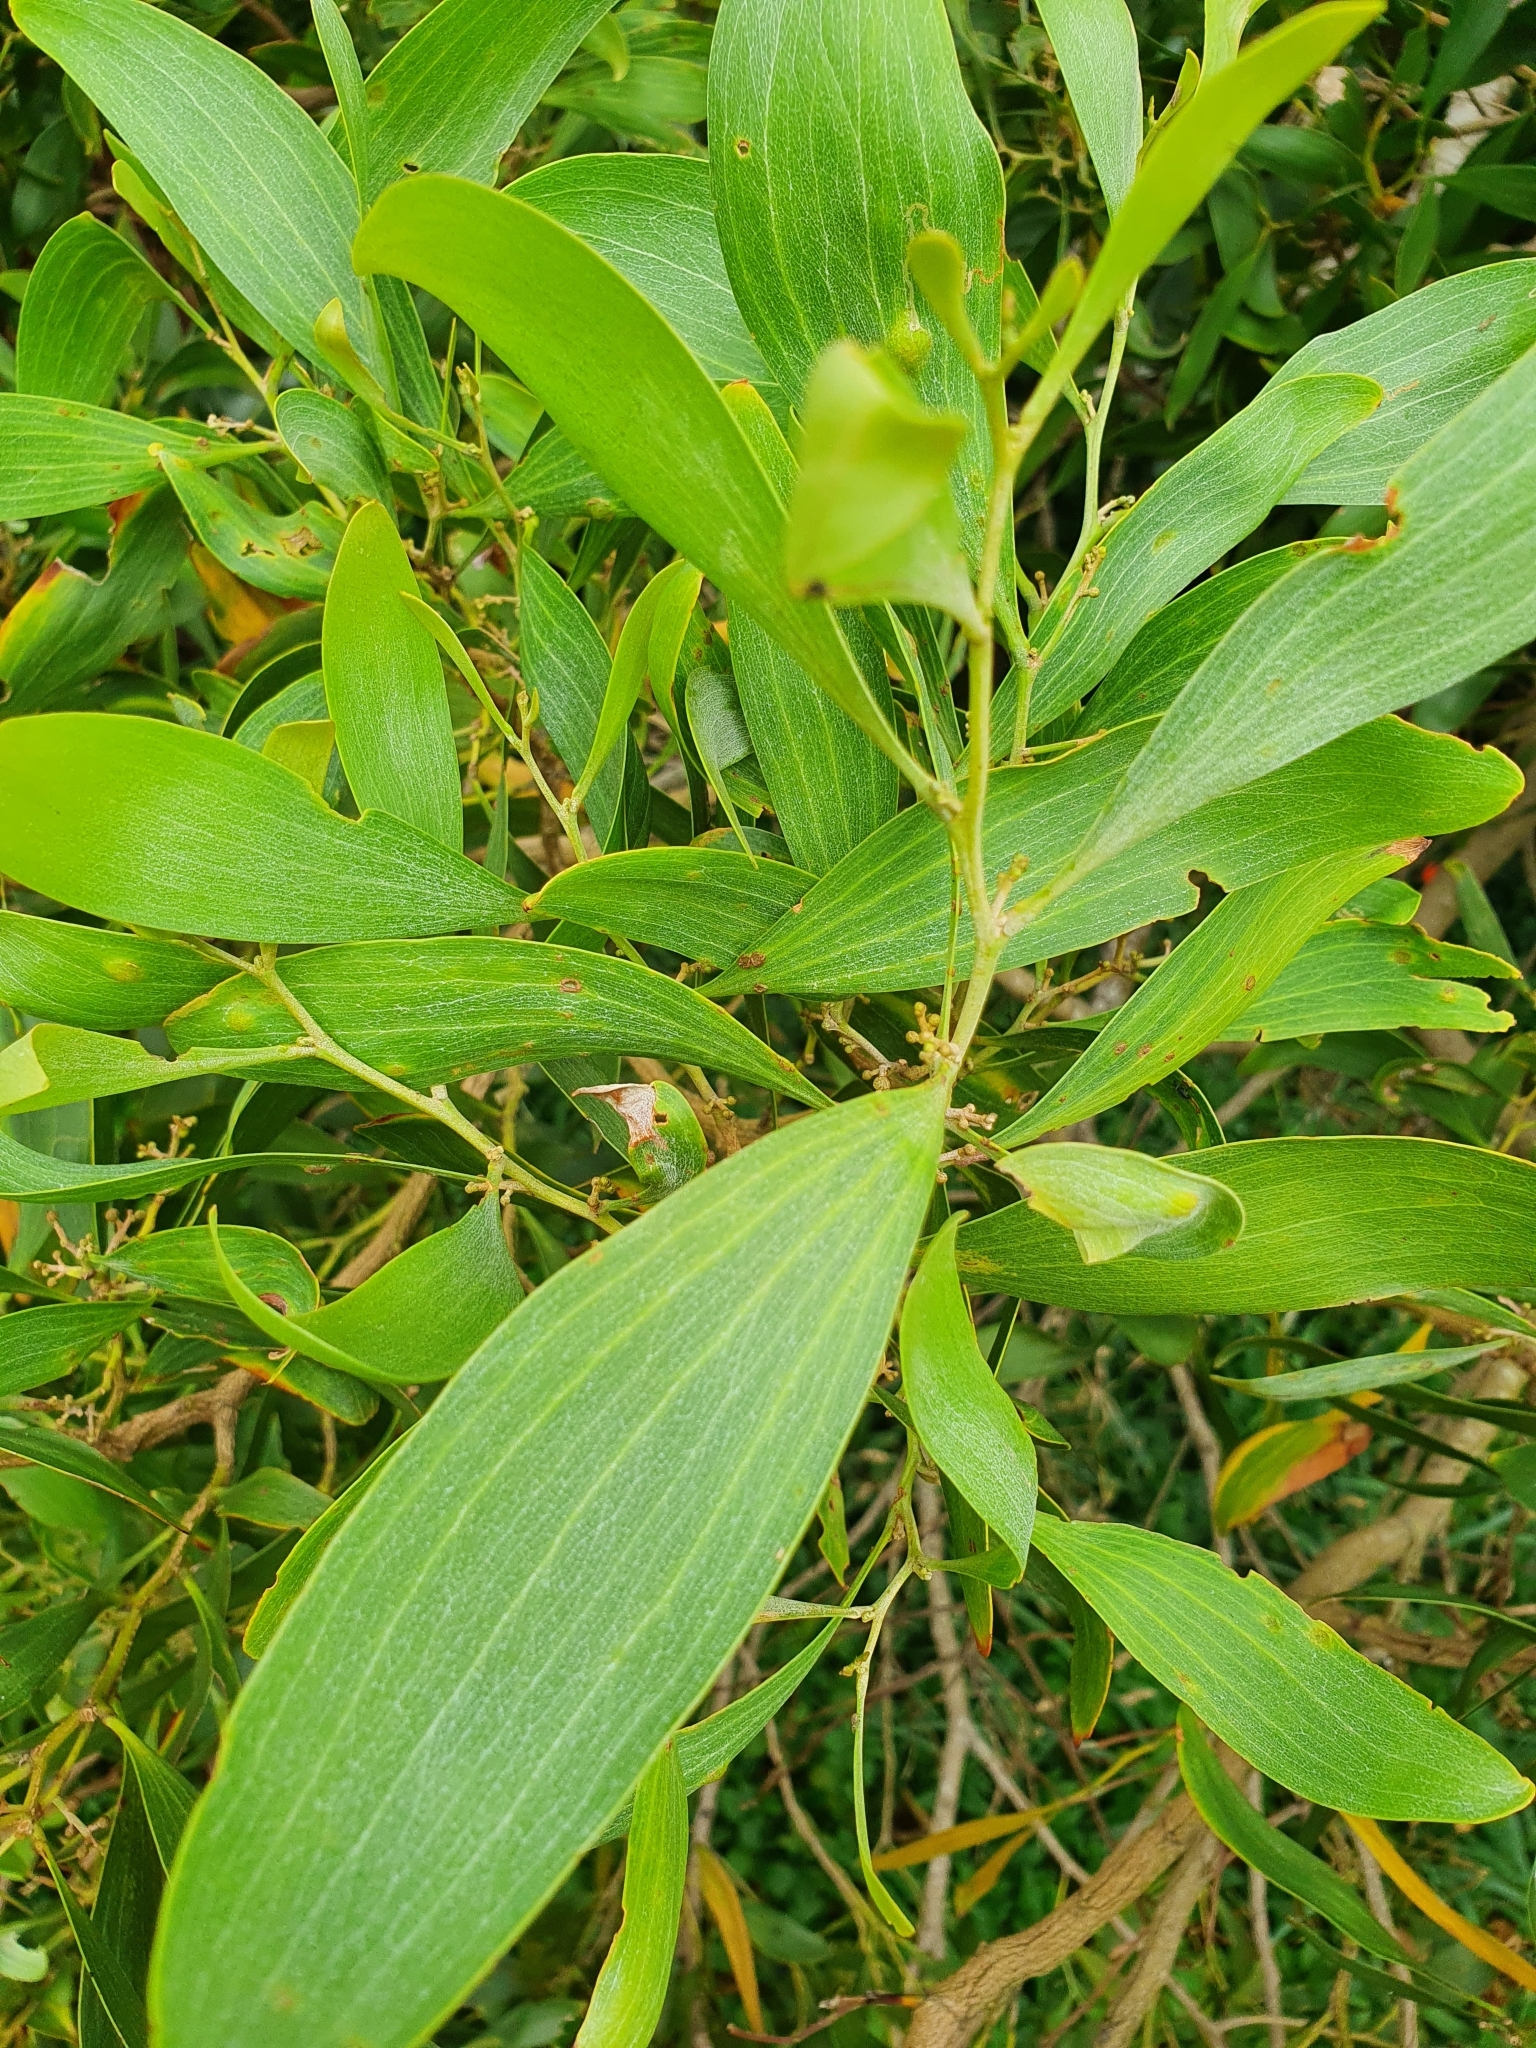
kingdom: Plantae
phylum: Tracheophyta
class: Magnoliopsida
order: Fabales
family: Fabaceae
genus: Acacia
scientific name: Acacia melanoxylon
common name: Blackwood
